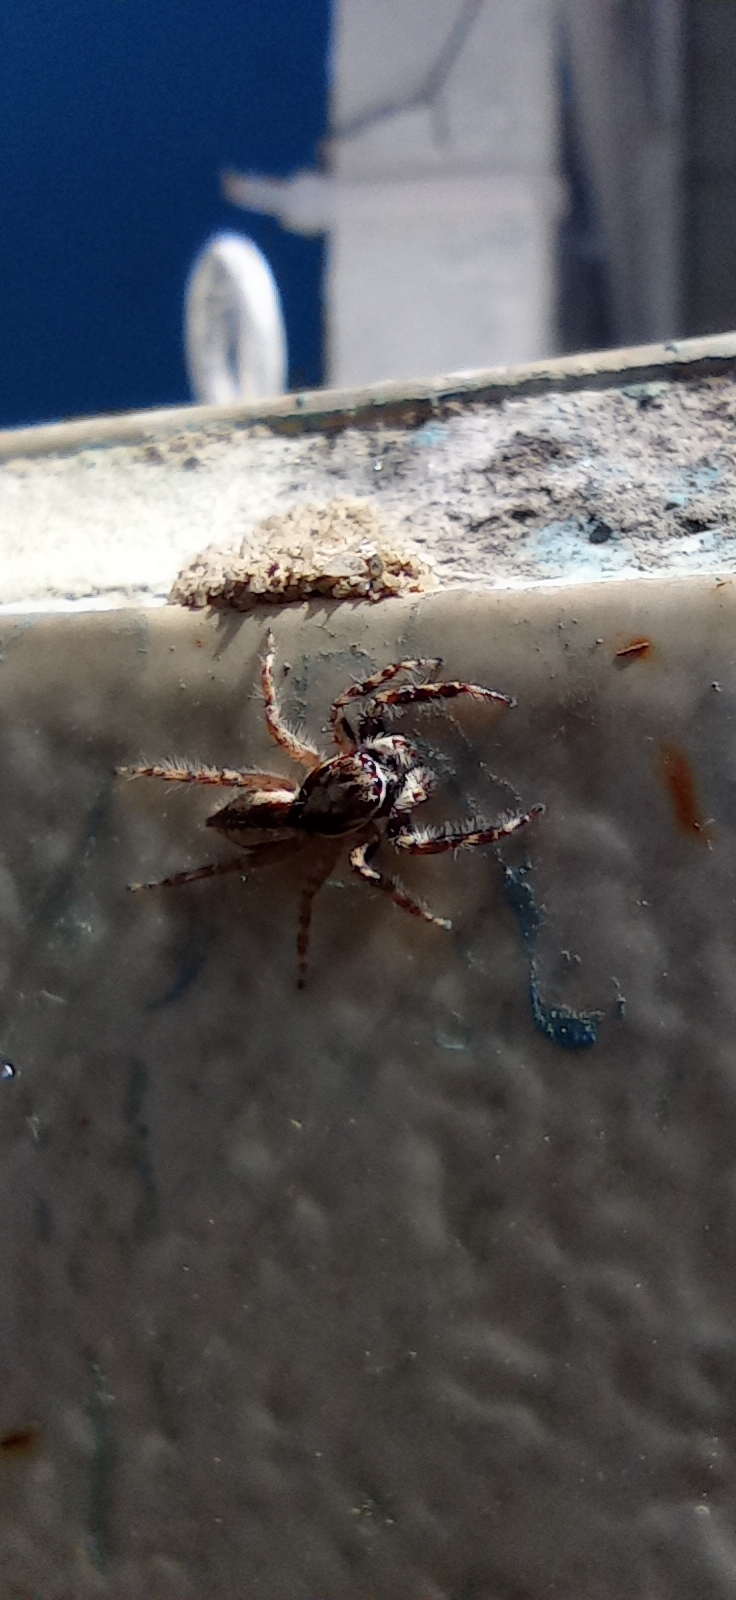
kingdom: Animalia
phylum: Arthropoda
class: Arachnida
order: Araneae
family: Salticidae
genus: Menemerus
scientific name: Menemerus bivittatus
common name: Gray wall jumper
